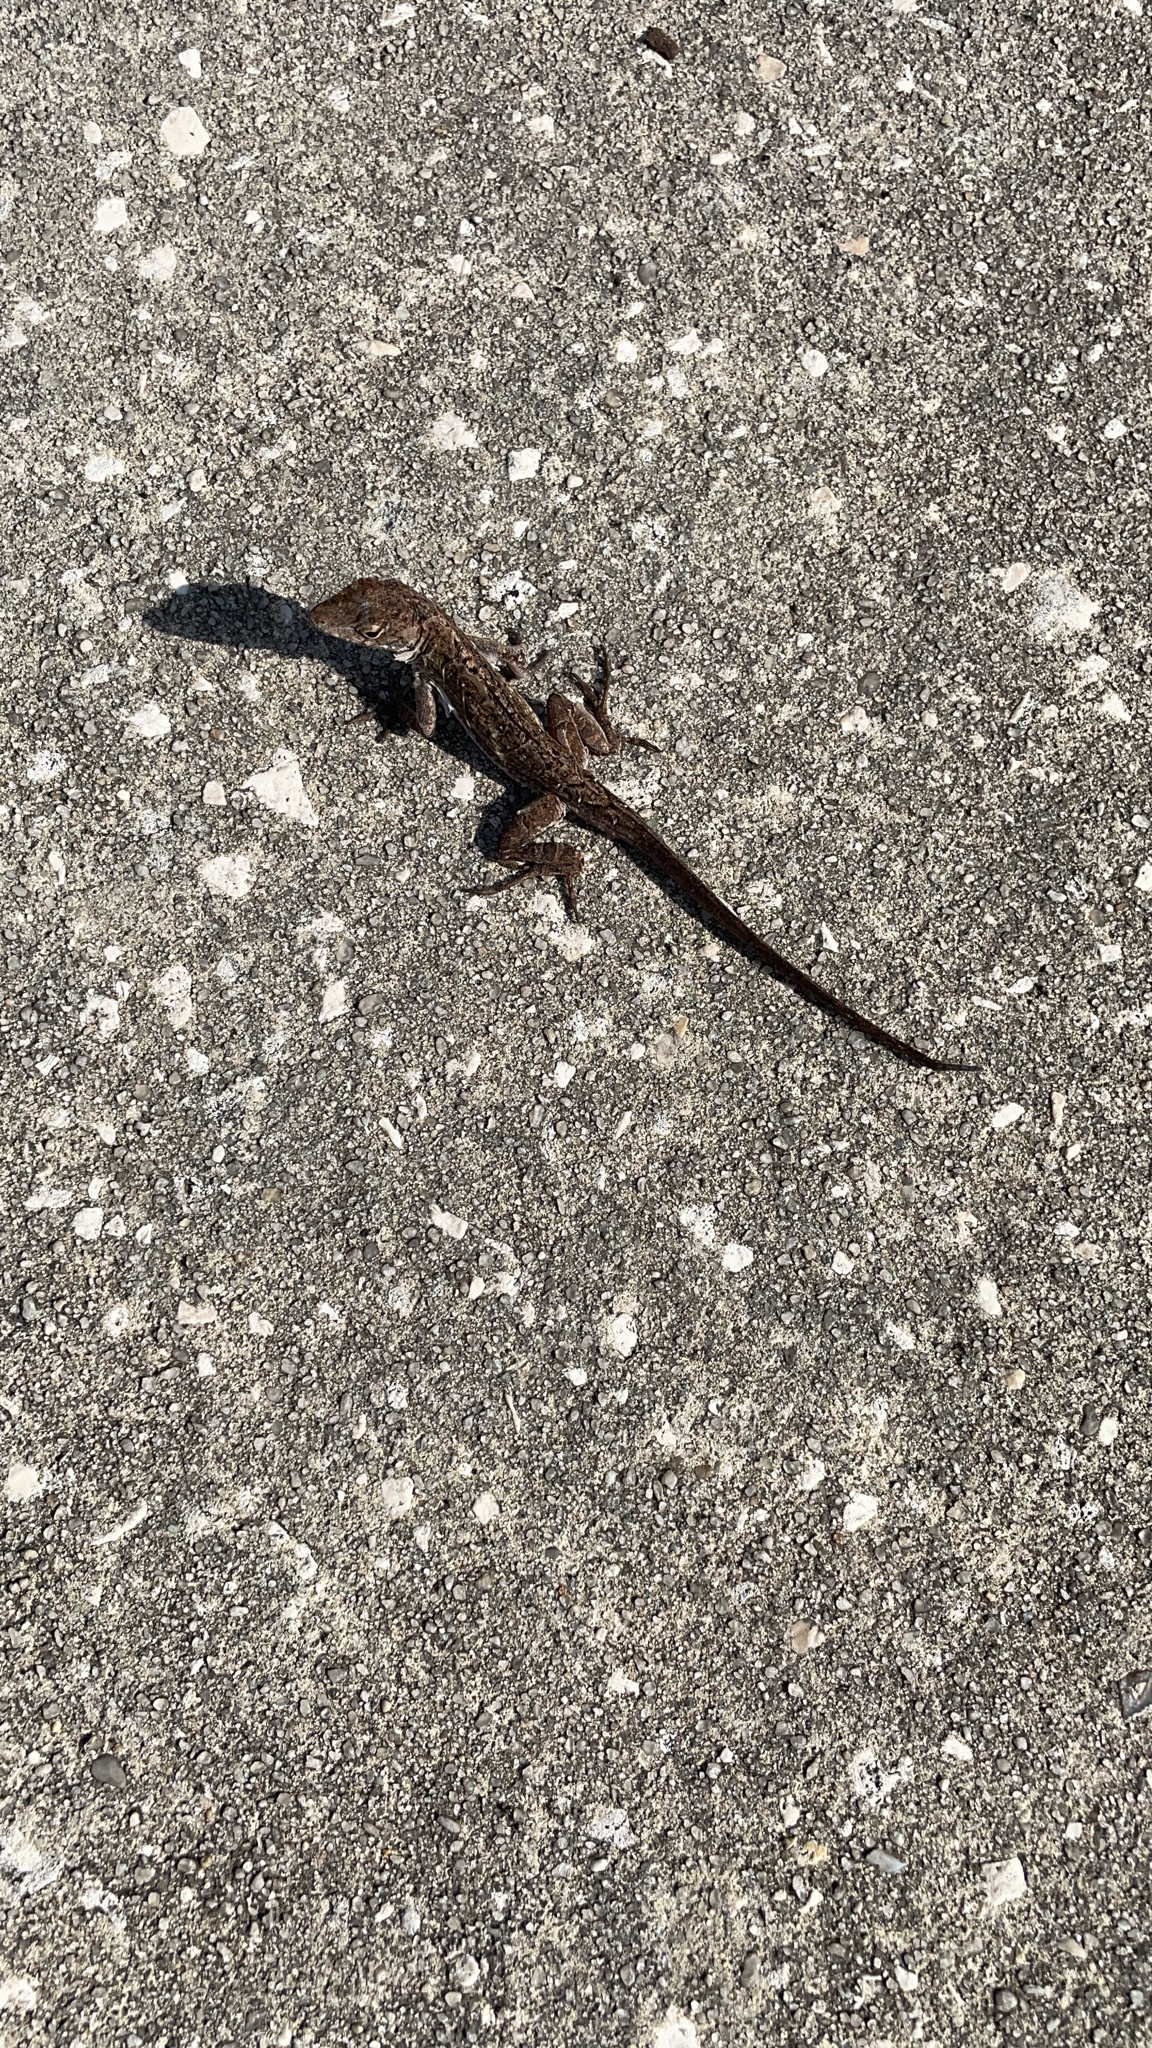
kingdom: Animalia
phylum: Chordata
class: Squamata
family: Dactyloidae
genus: Anolis
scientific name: Anolis sagrei
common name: Brown anole
